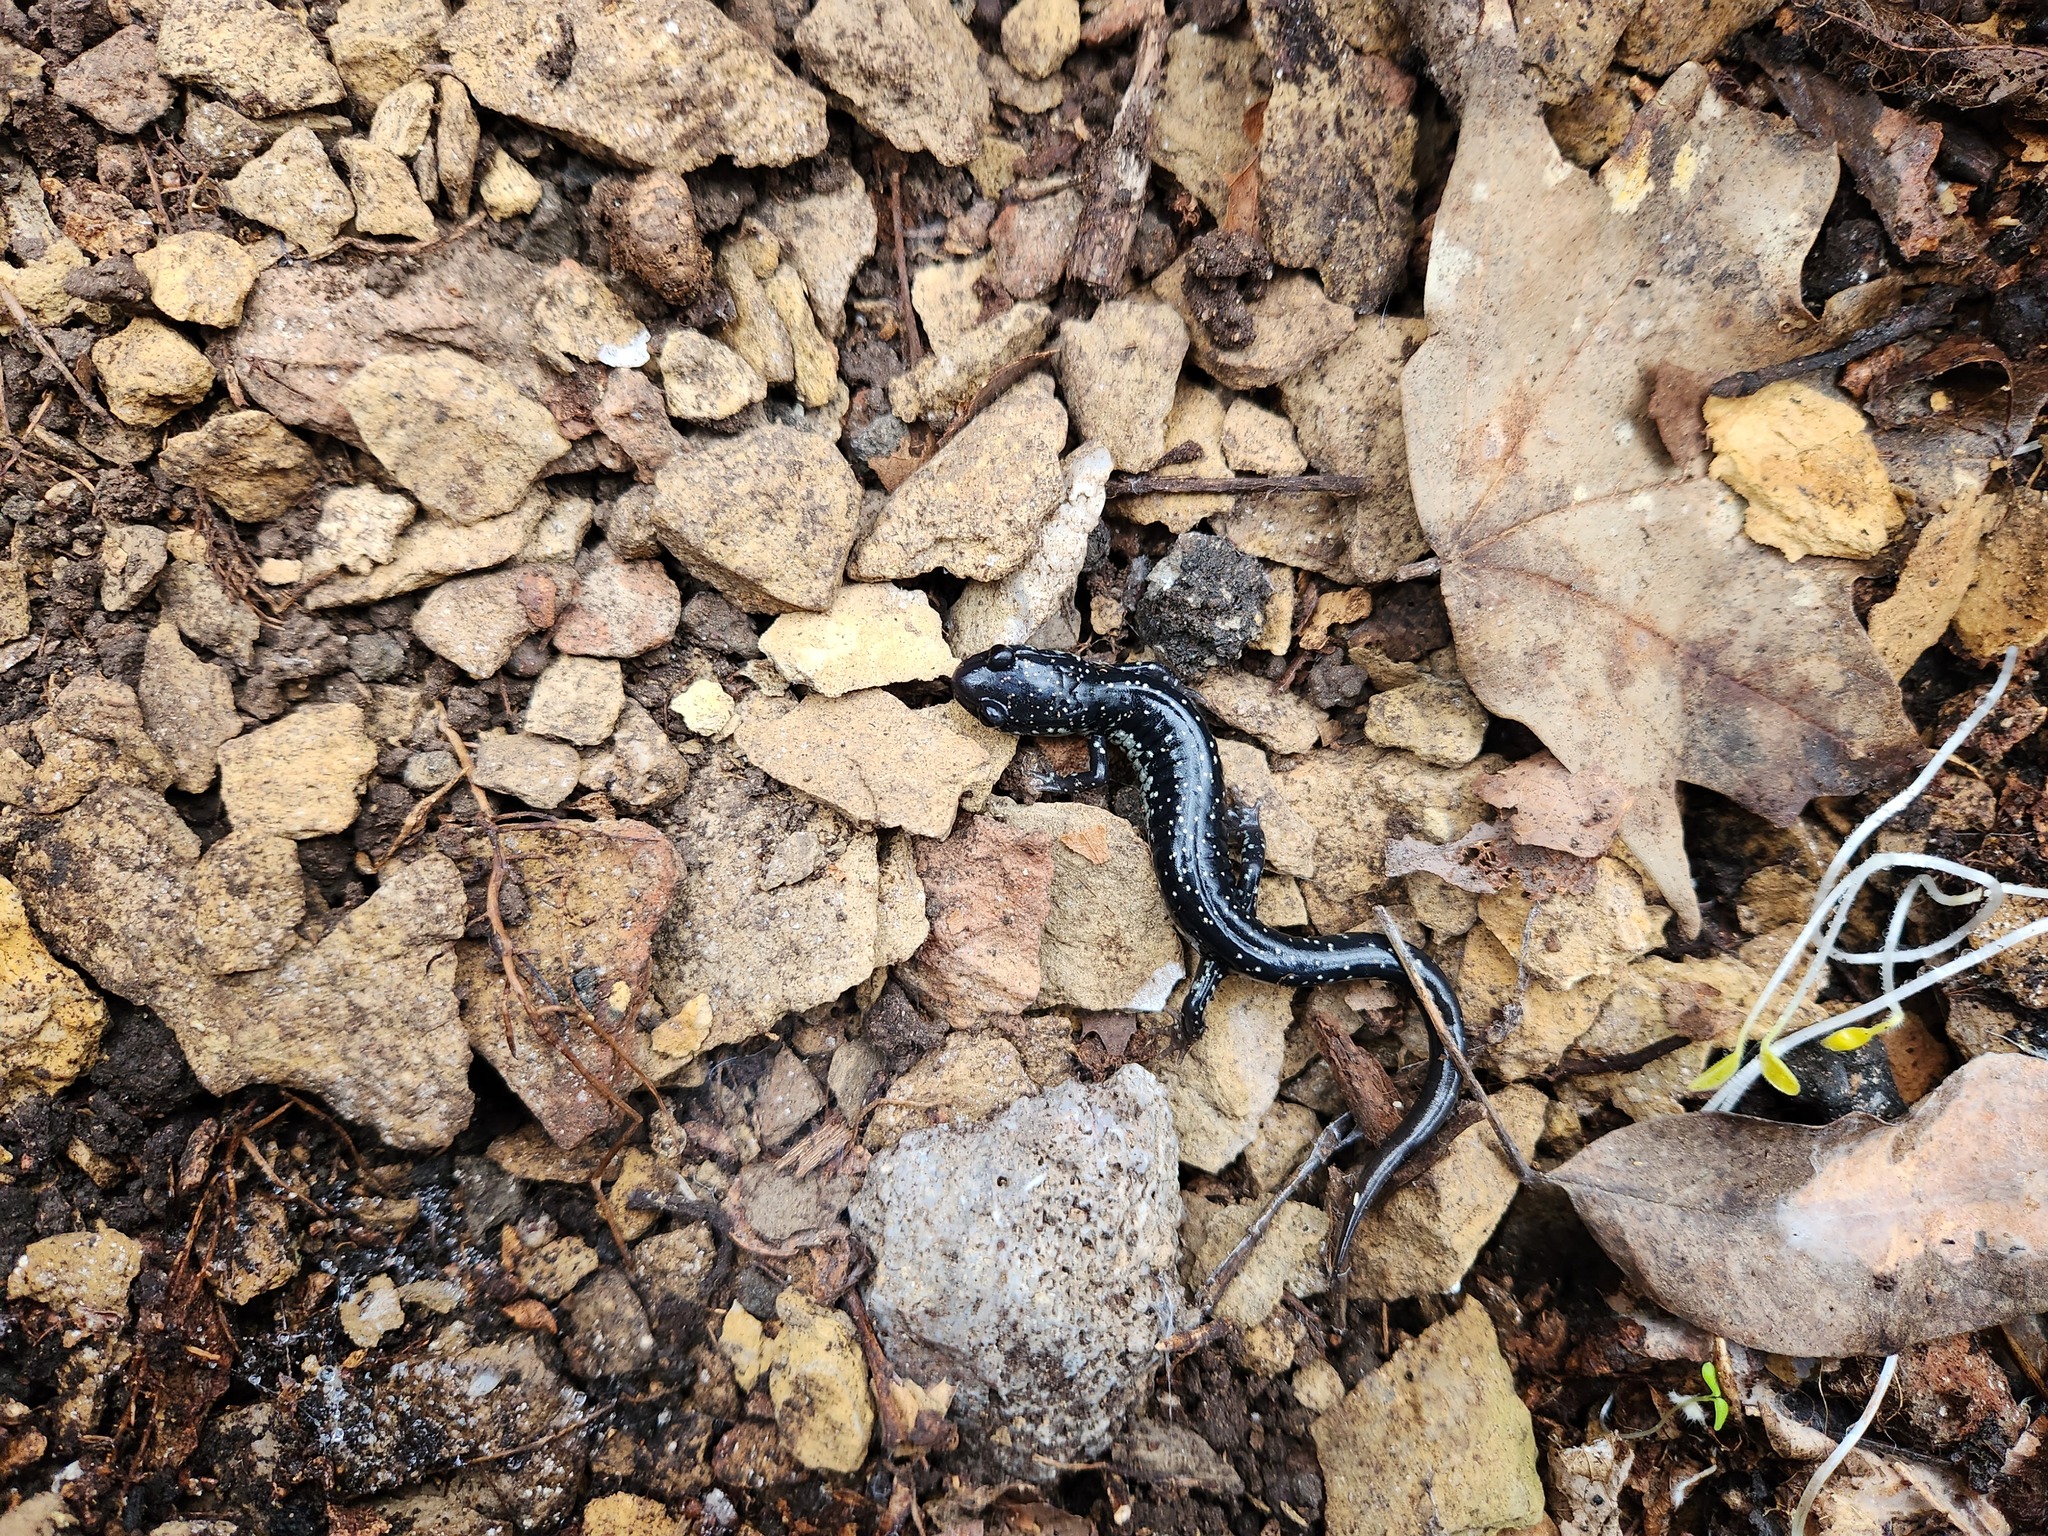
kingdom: Animalia
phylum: Chordata
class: Amphibia
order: Caudata
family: Plethodontidae
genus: Plethodon
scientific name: Plethodon glutinosus
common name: Northern slimy salamander
